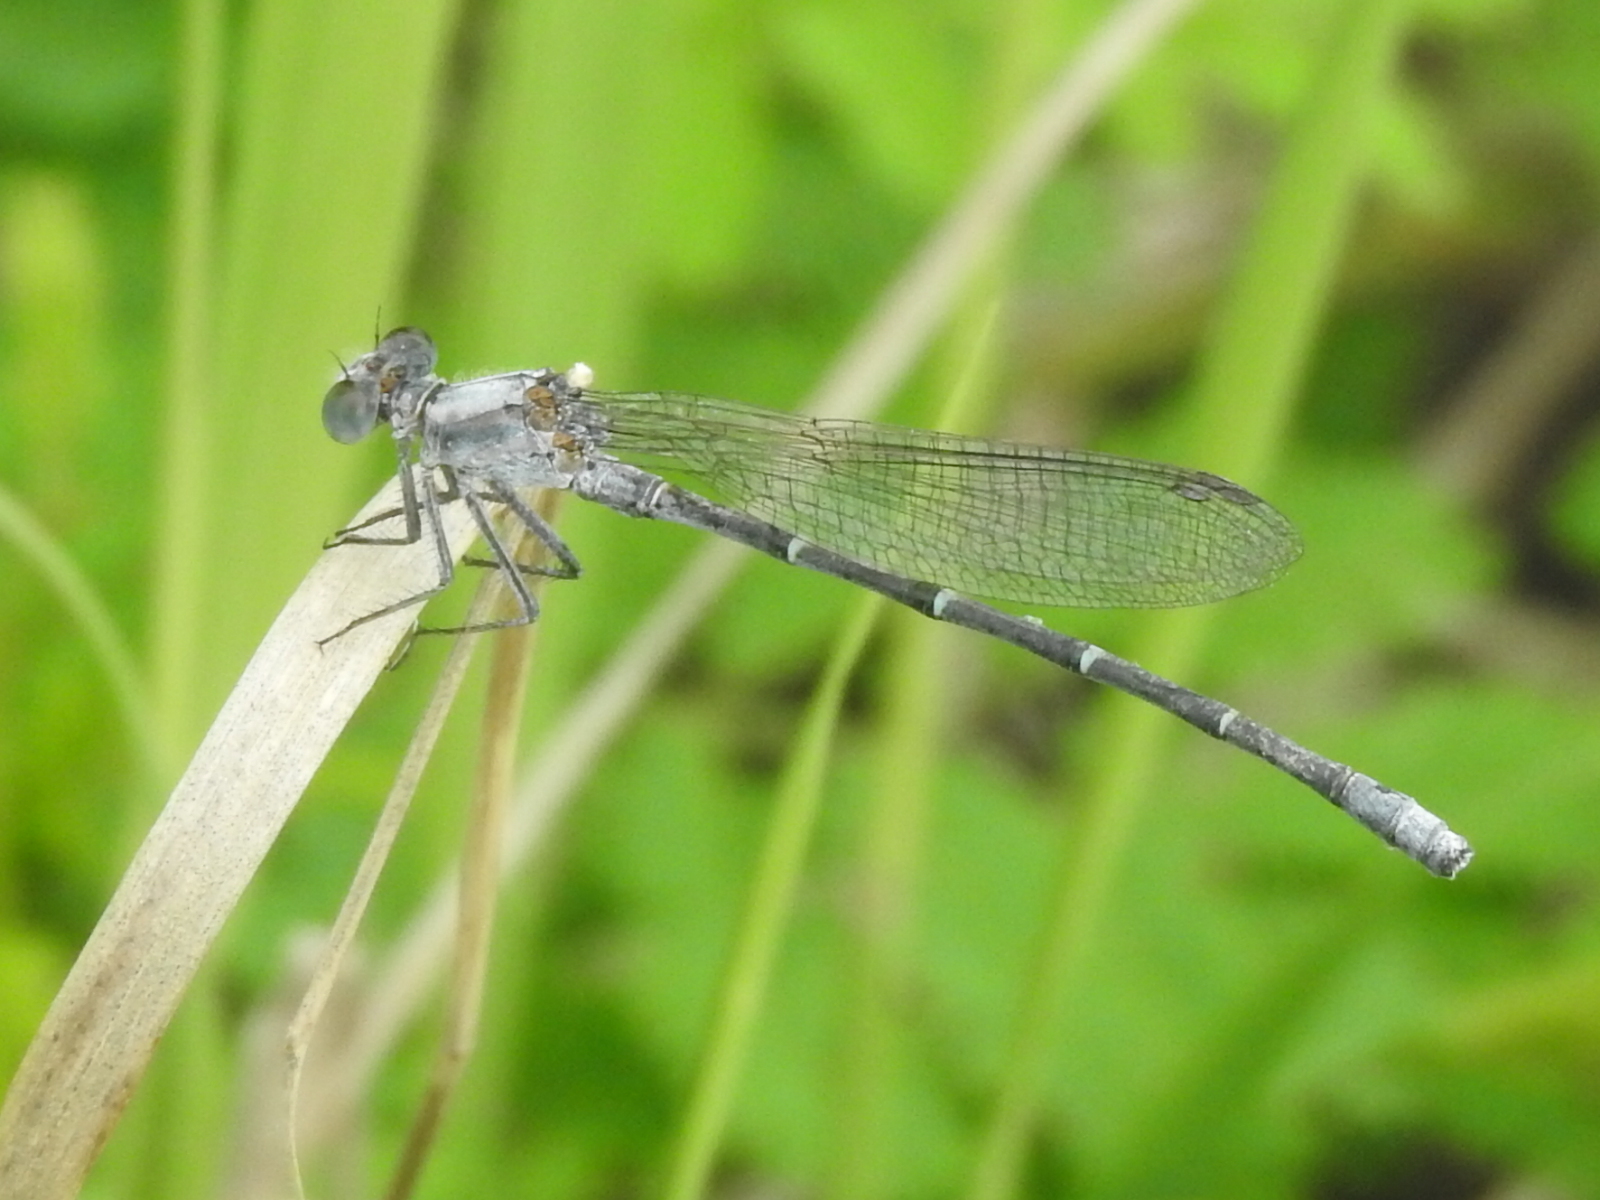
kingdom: Animalia
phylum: Arthropoda
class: Insecta
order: Odonata
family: Coenagrionidae
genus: Argia
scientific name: Argia moesta
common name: Powdered dancer
